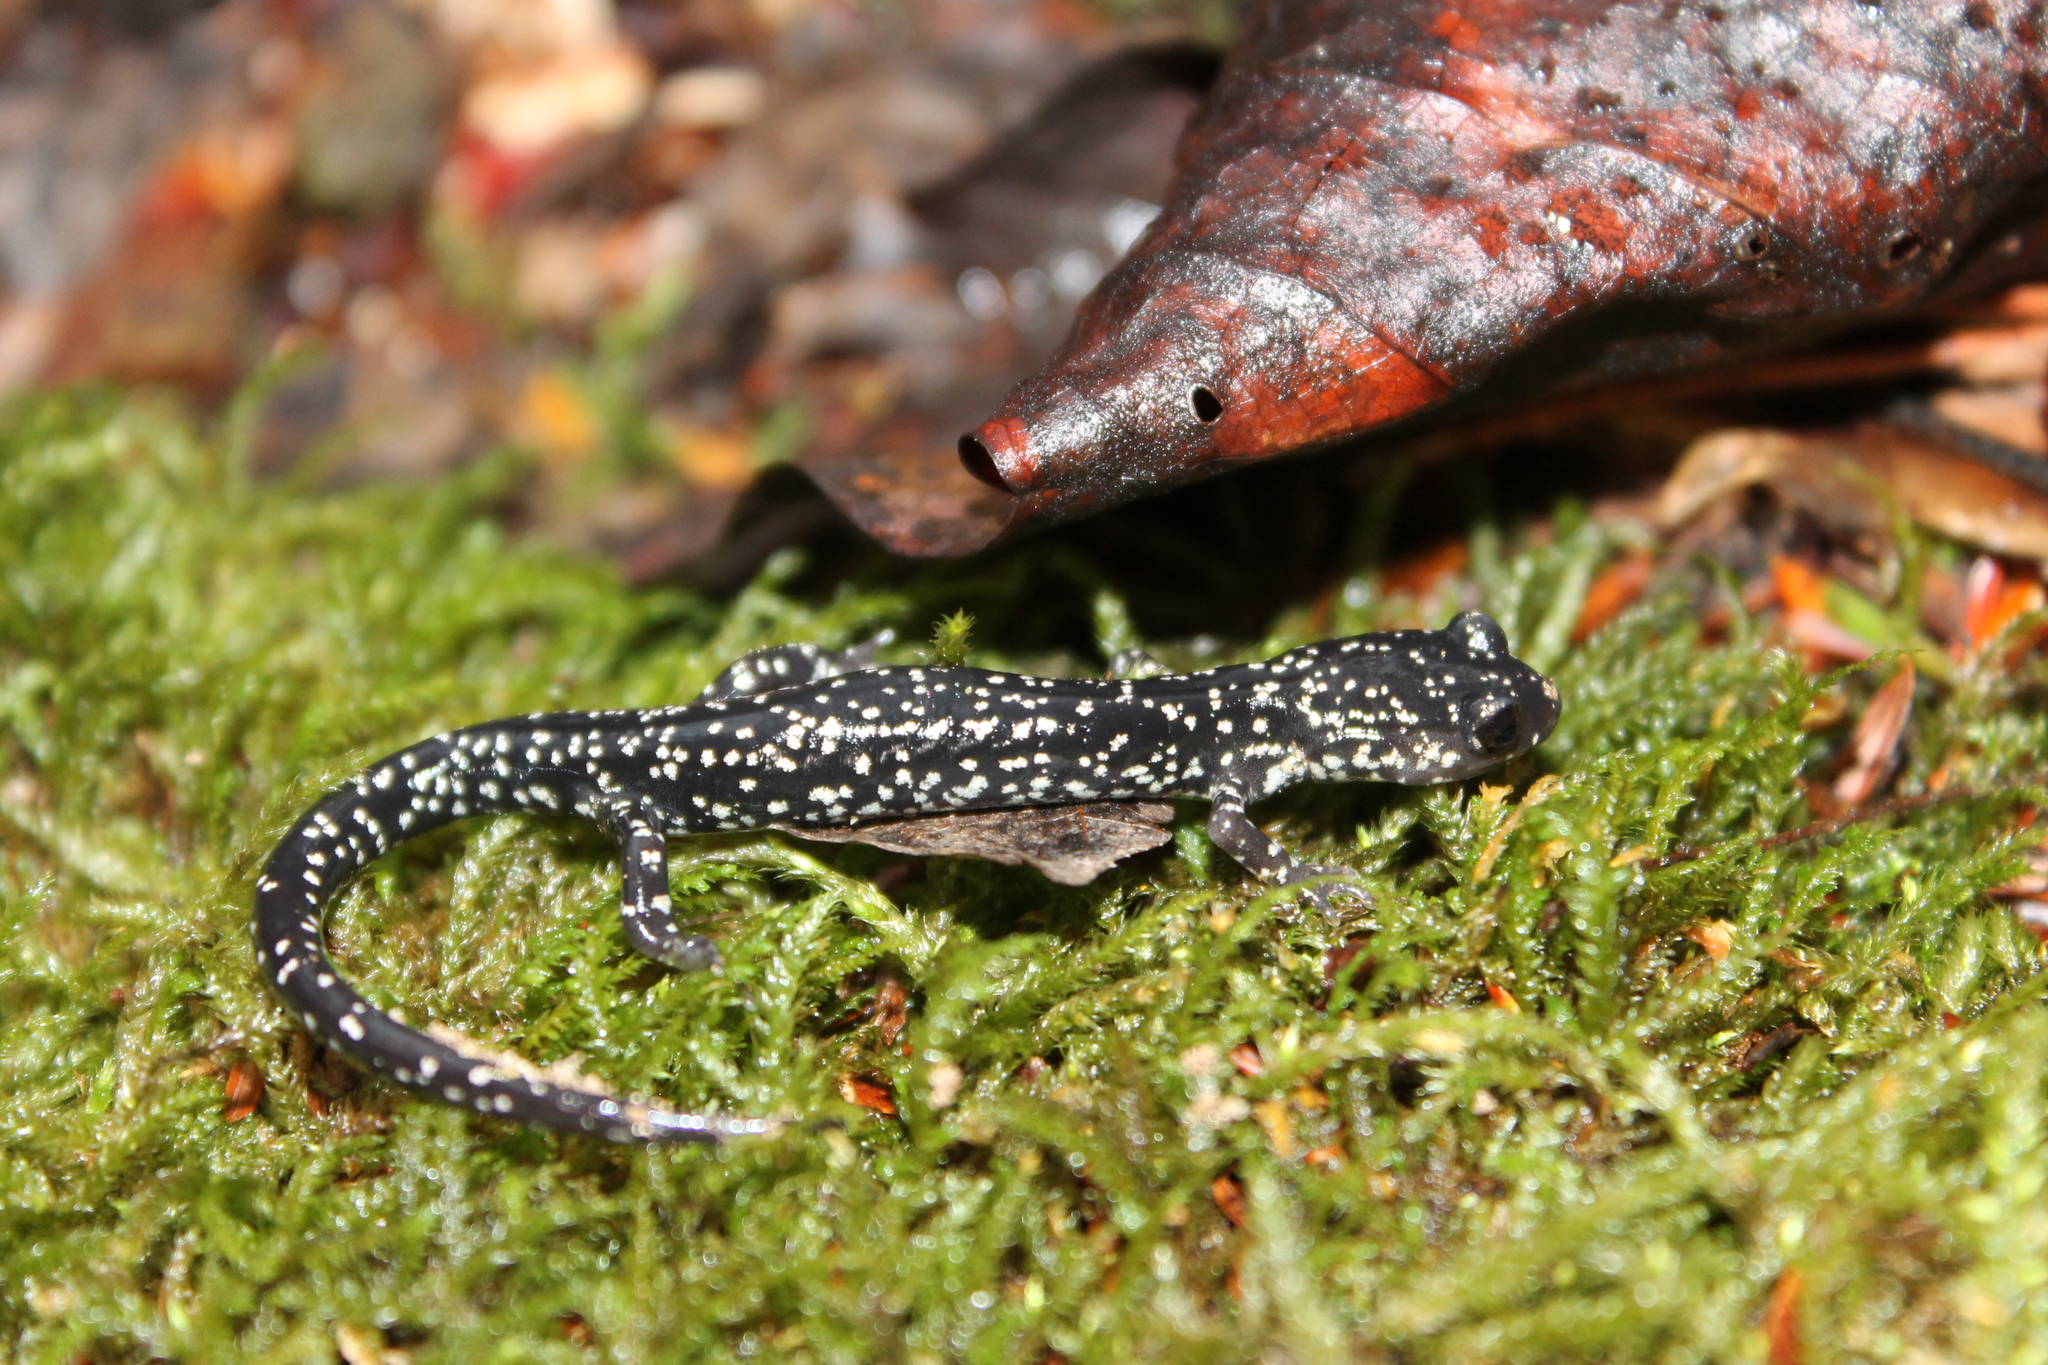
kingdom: Animalia
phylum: Chordata
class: Amphibia
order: Caudata
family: Plethodontidae
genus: Plethodon
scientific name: Plethodon mississippi
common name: Mississippi slimy salamander
